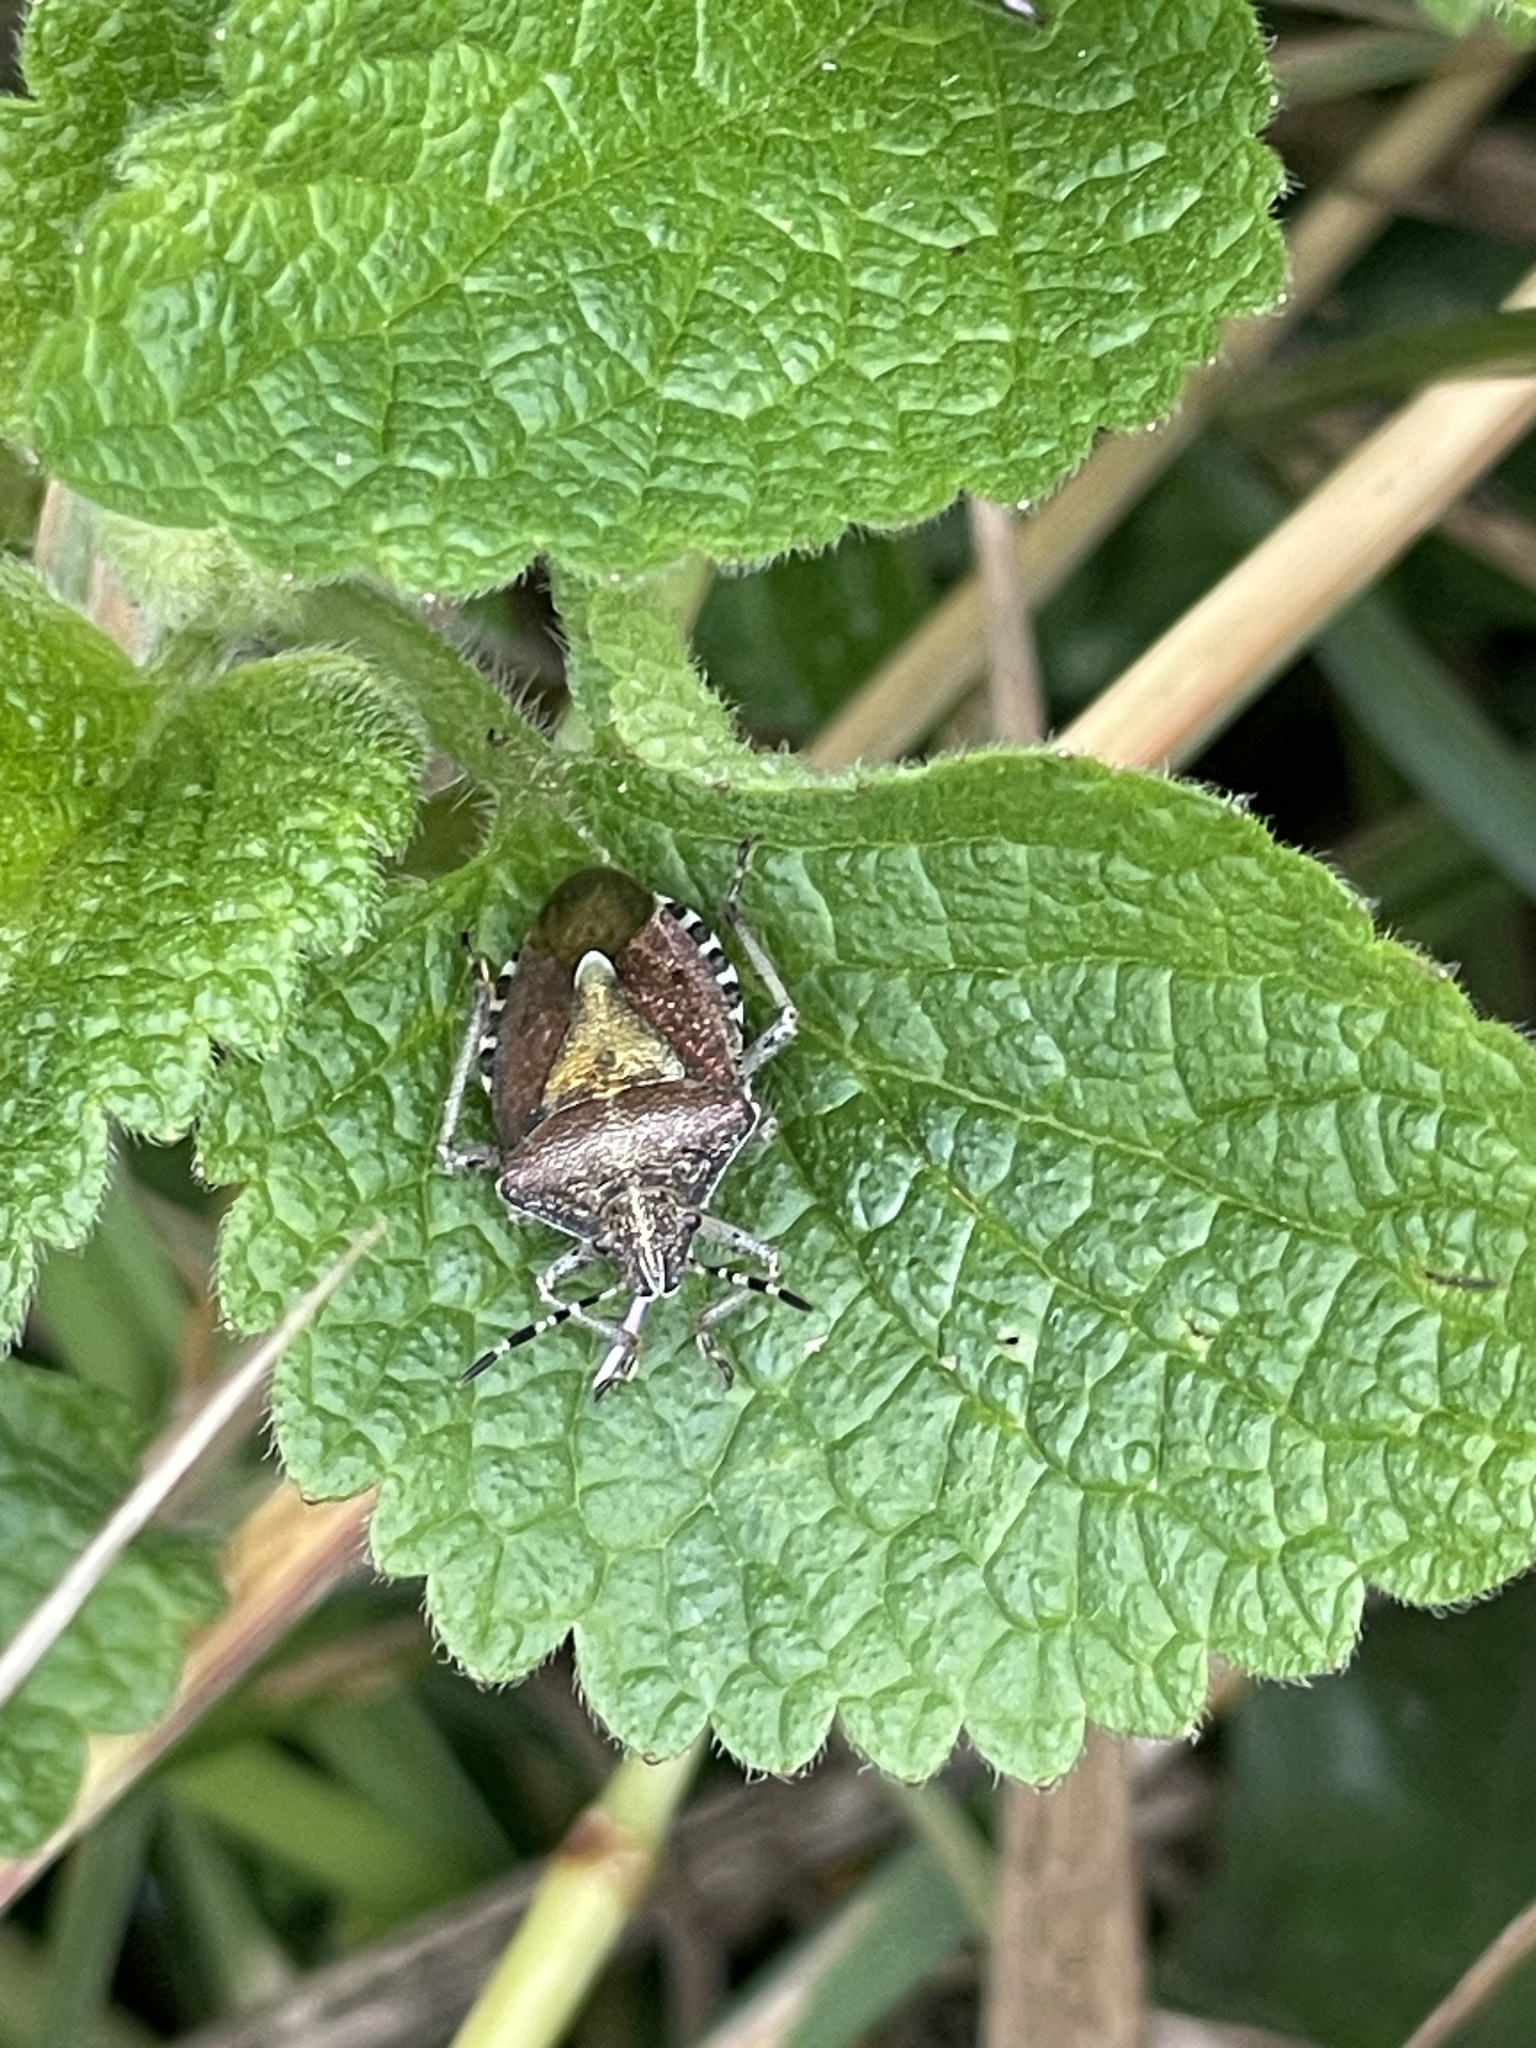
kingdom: Animalia
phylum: Arthropoda
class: Insecta
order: Hemiptera
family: Pentatomidae
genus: Dolycoris
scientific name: Dolycoris baccarum
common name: Sloe bug
